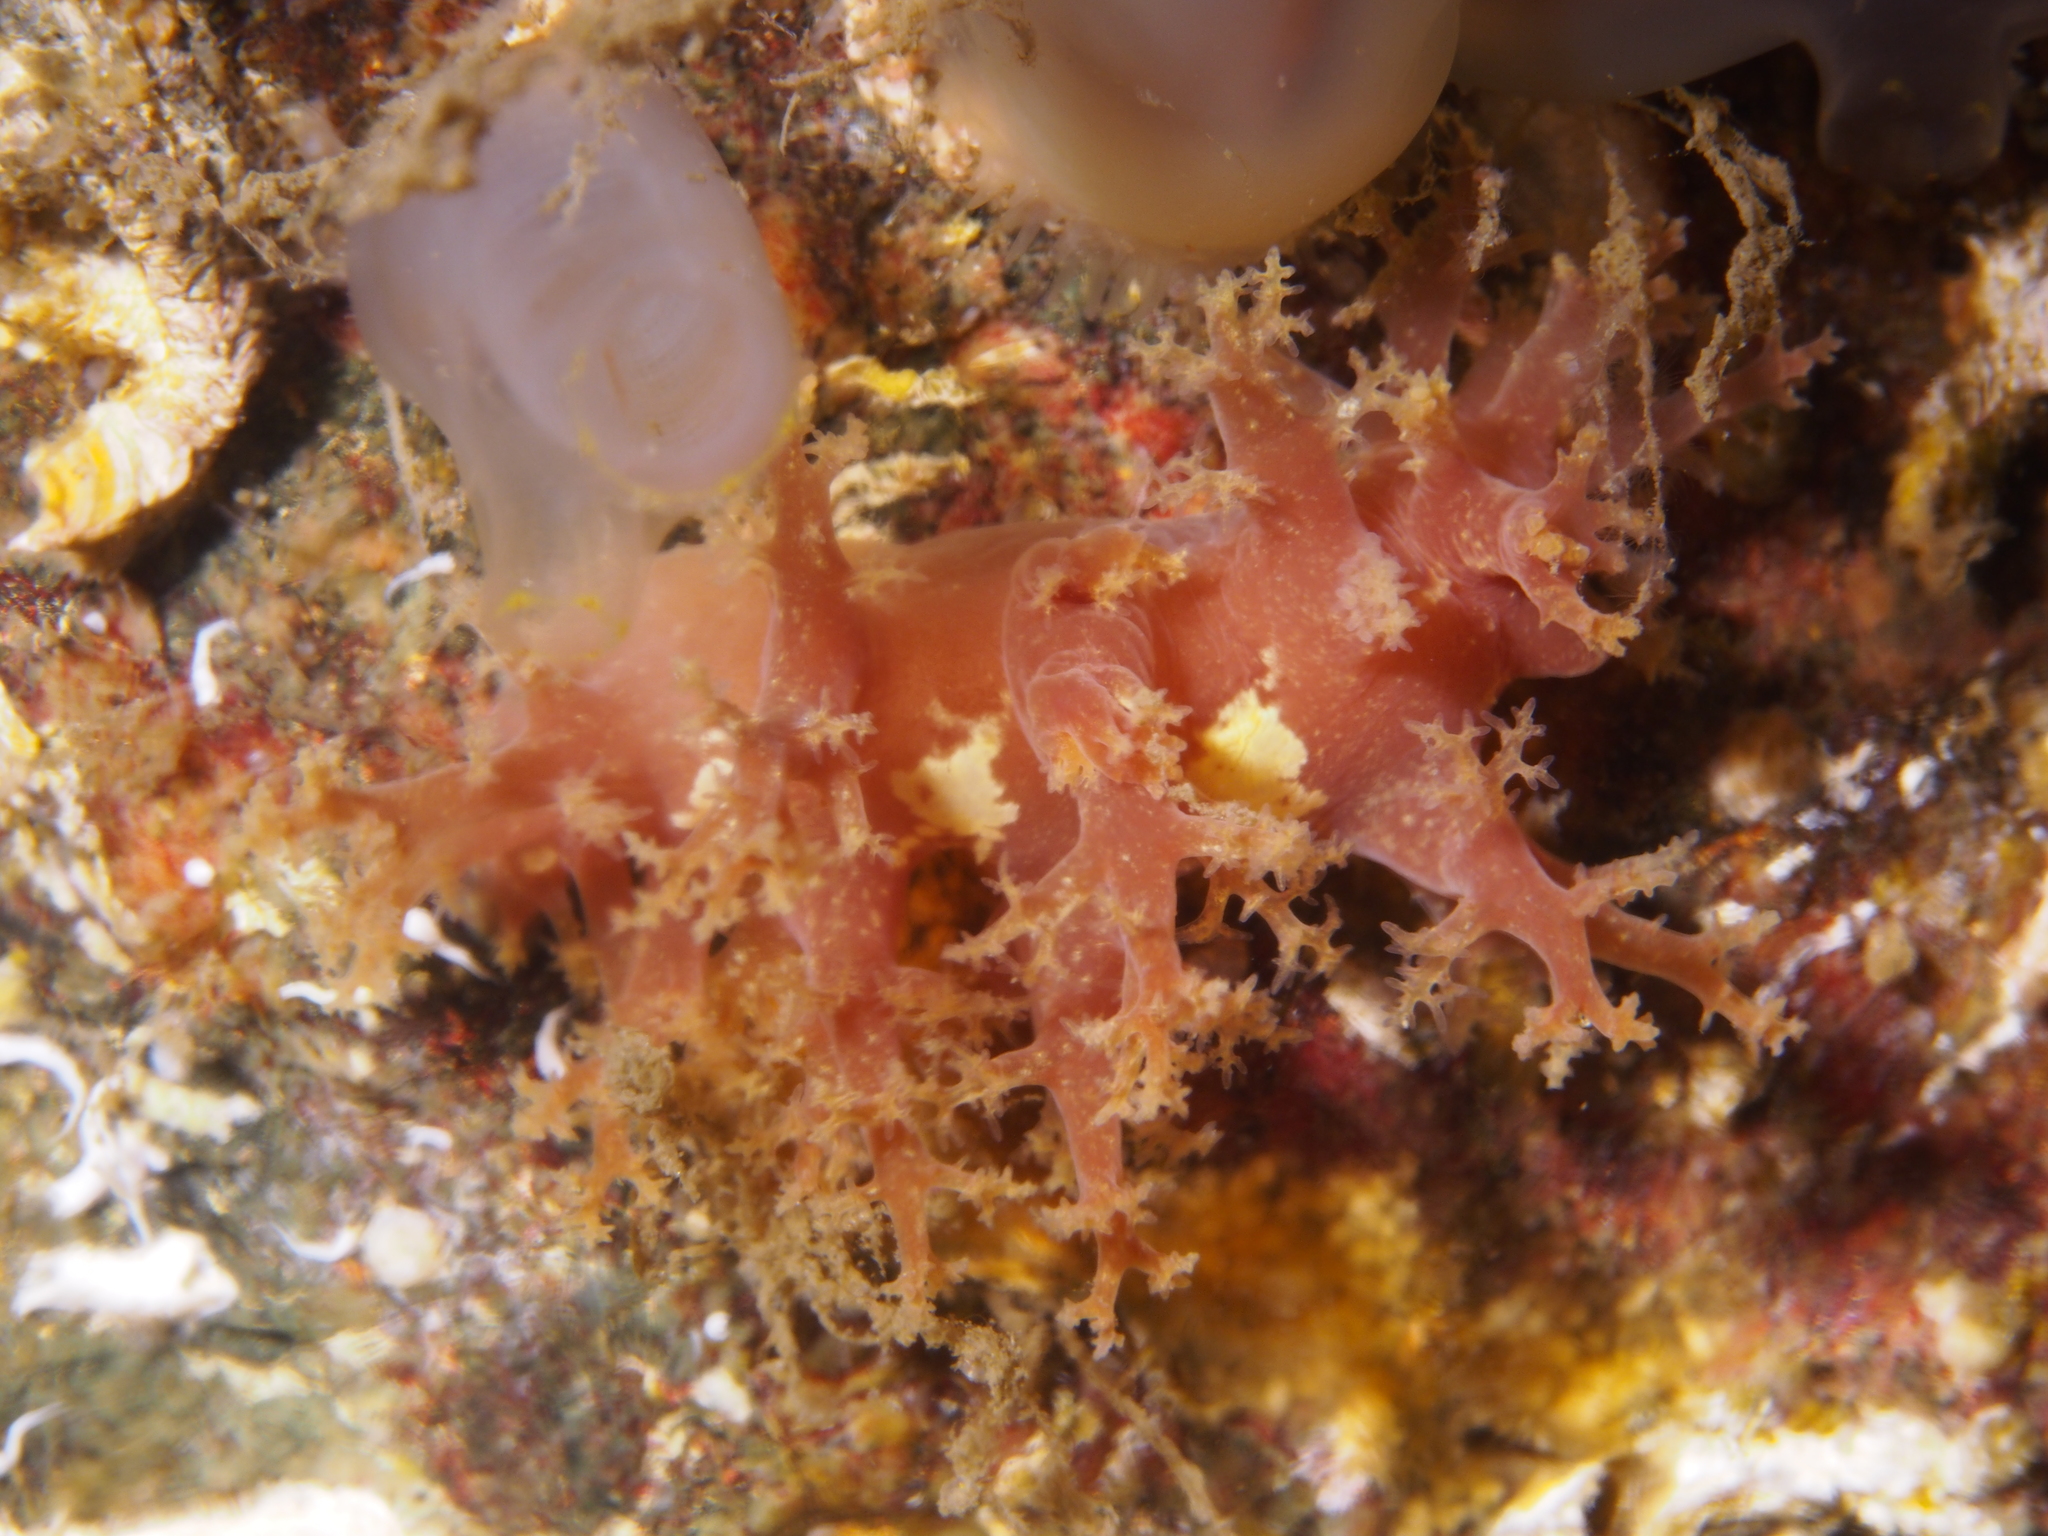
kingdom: Animalia
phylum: Mollusca
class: Gastropoda
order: Nudibranchia
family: Dendronotidae
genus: Dendronotus
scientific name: Dendronotus lacteus
